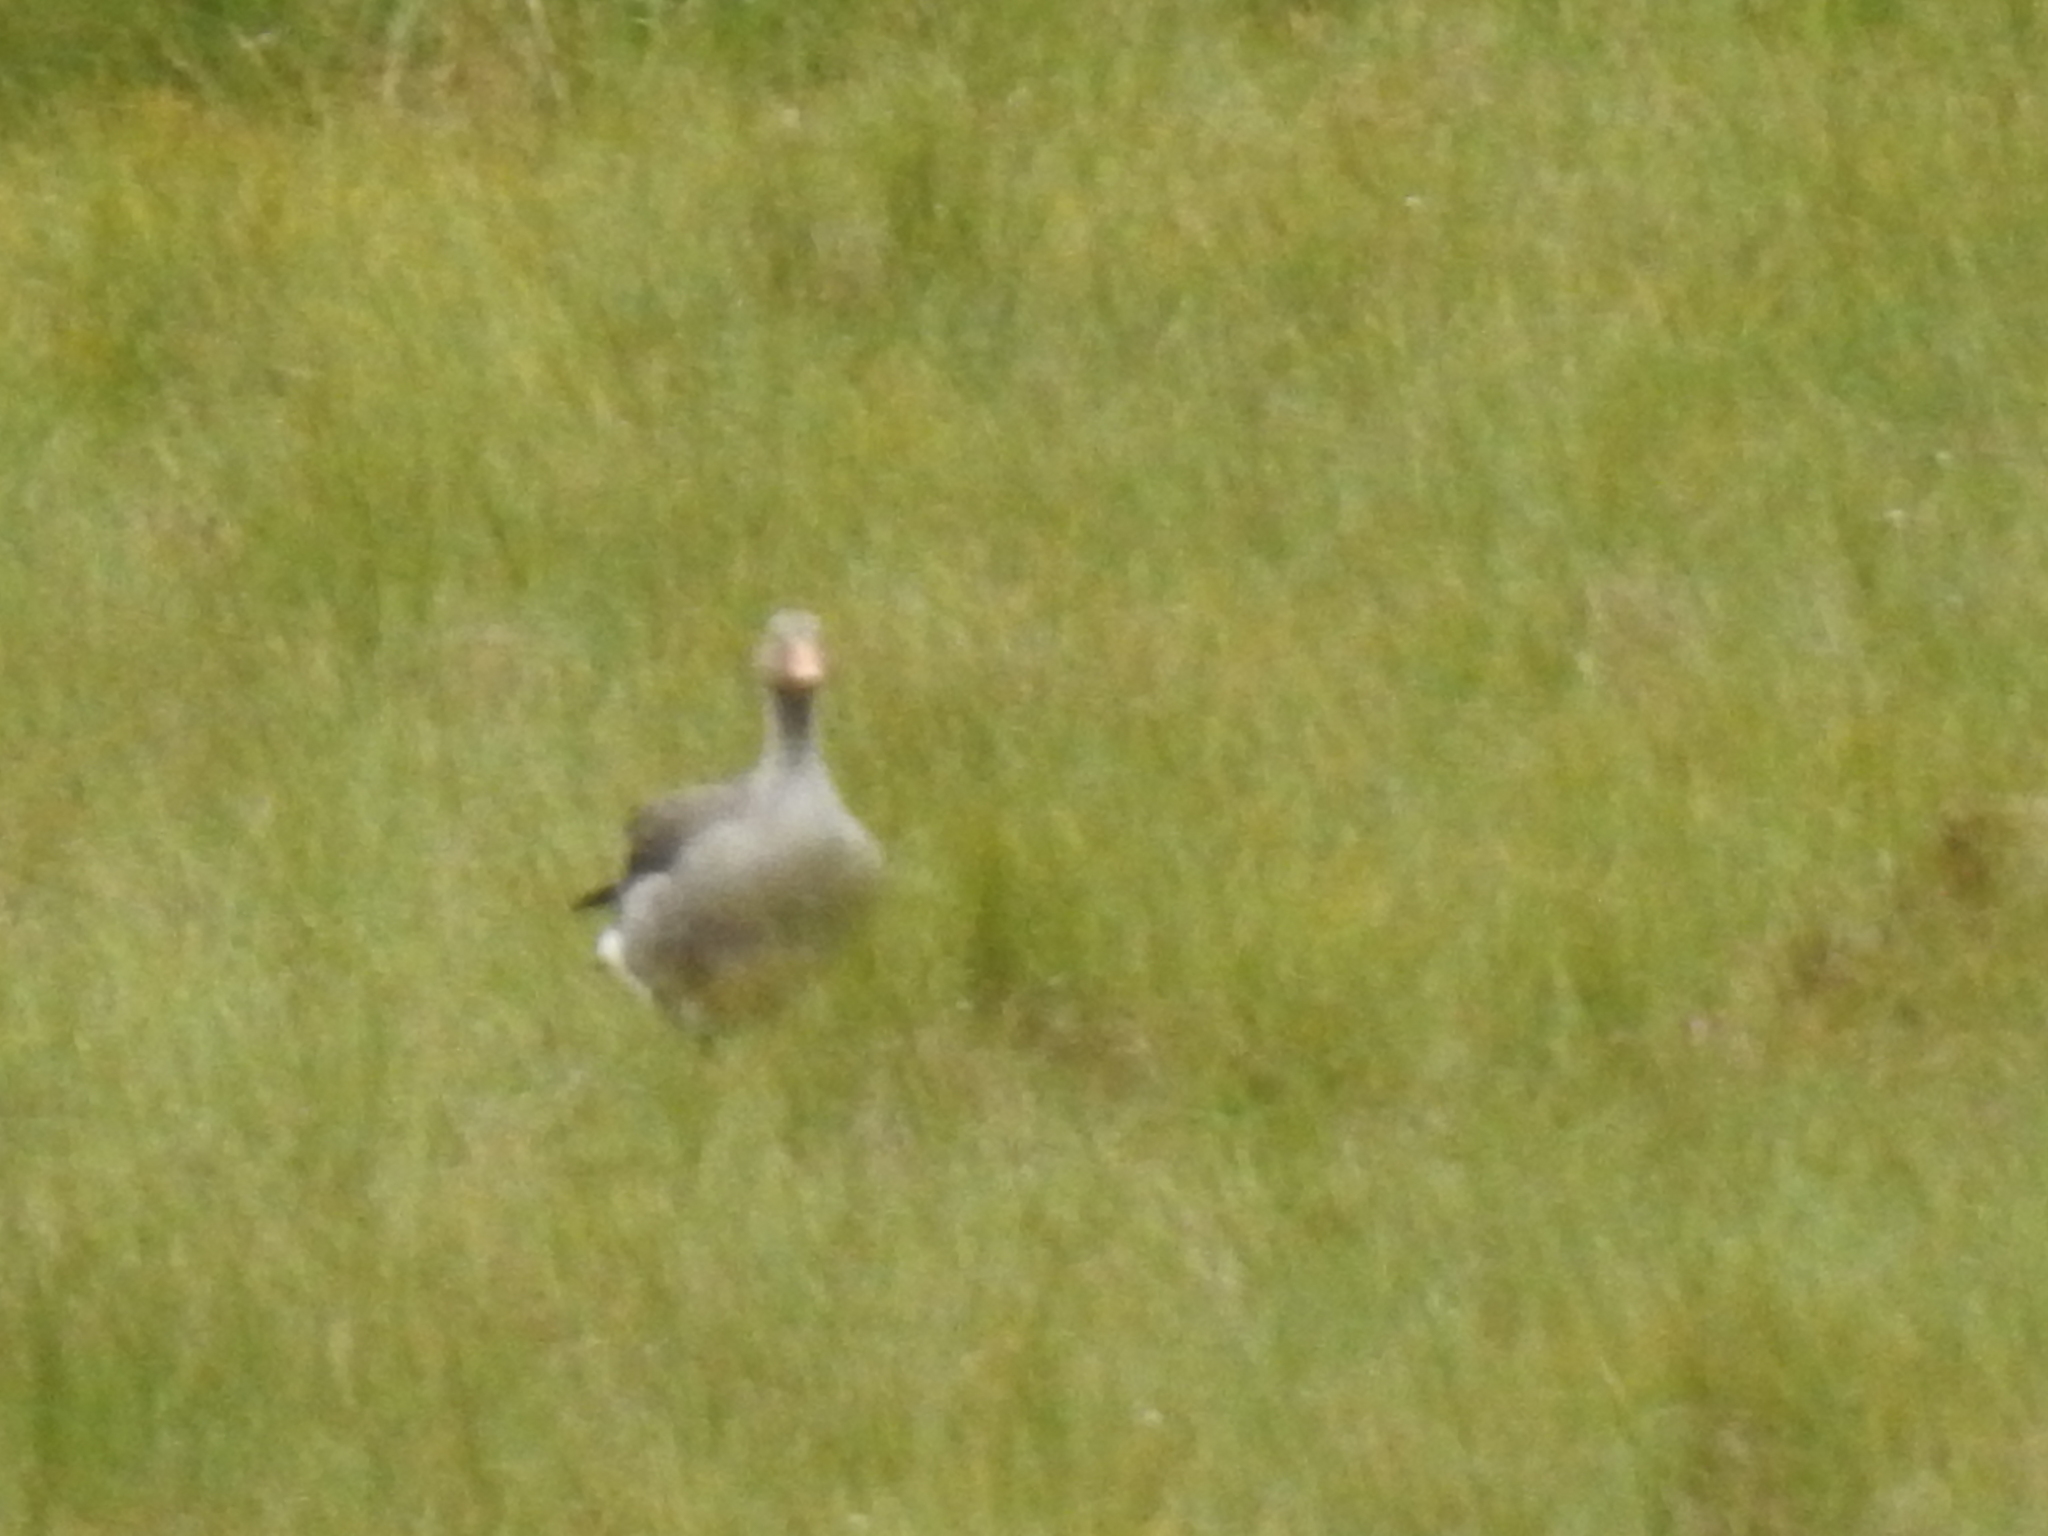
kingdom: Animalia
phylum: Chordata
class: Aves
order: Anseriformes
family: Anatidae
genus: Anser
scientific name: Anser anser
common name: Greylag goose
